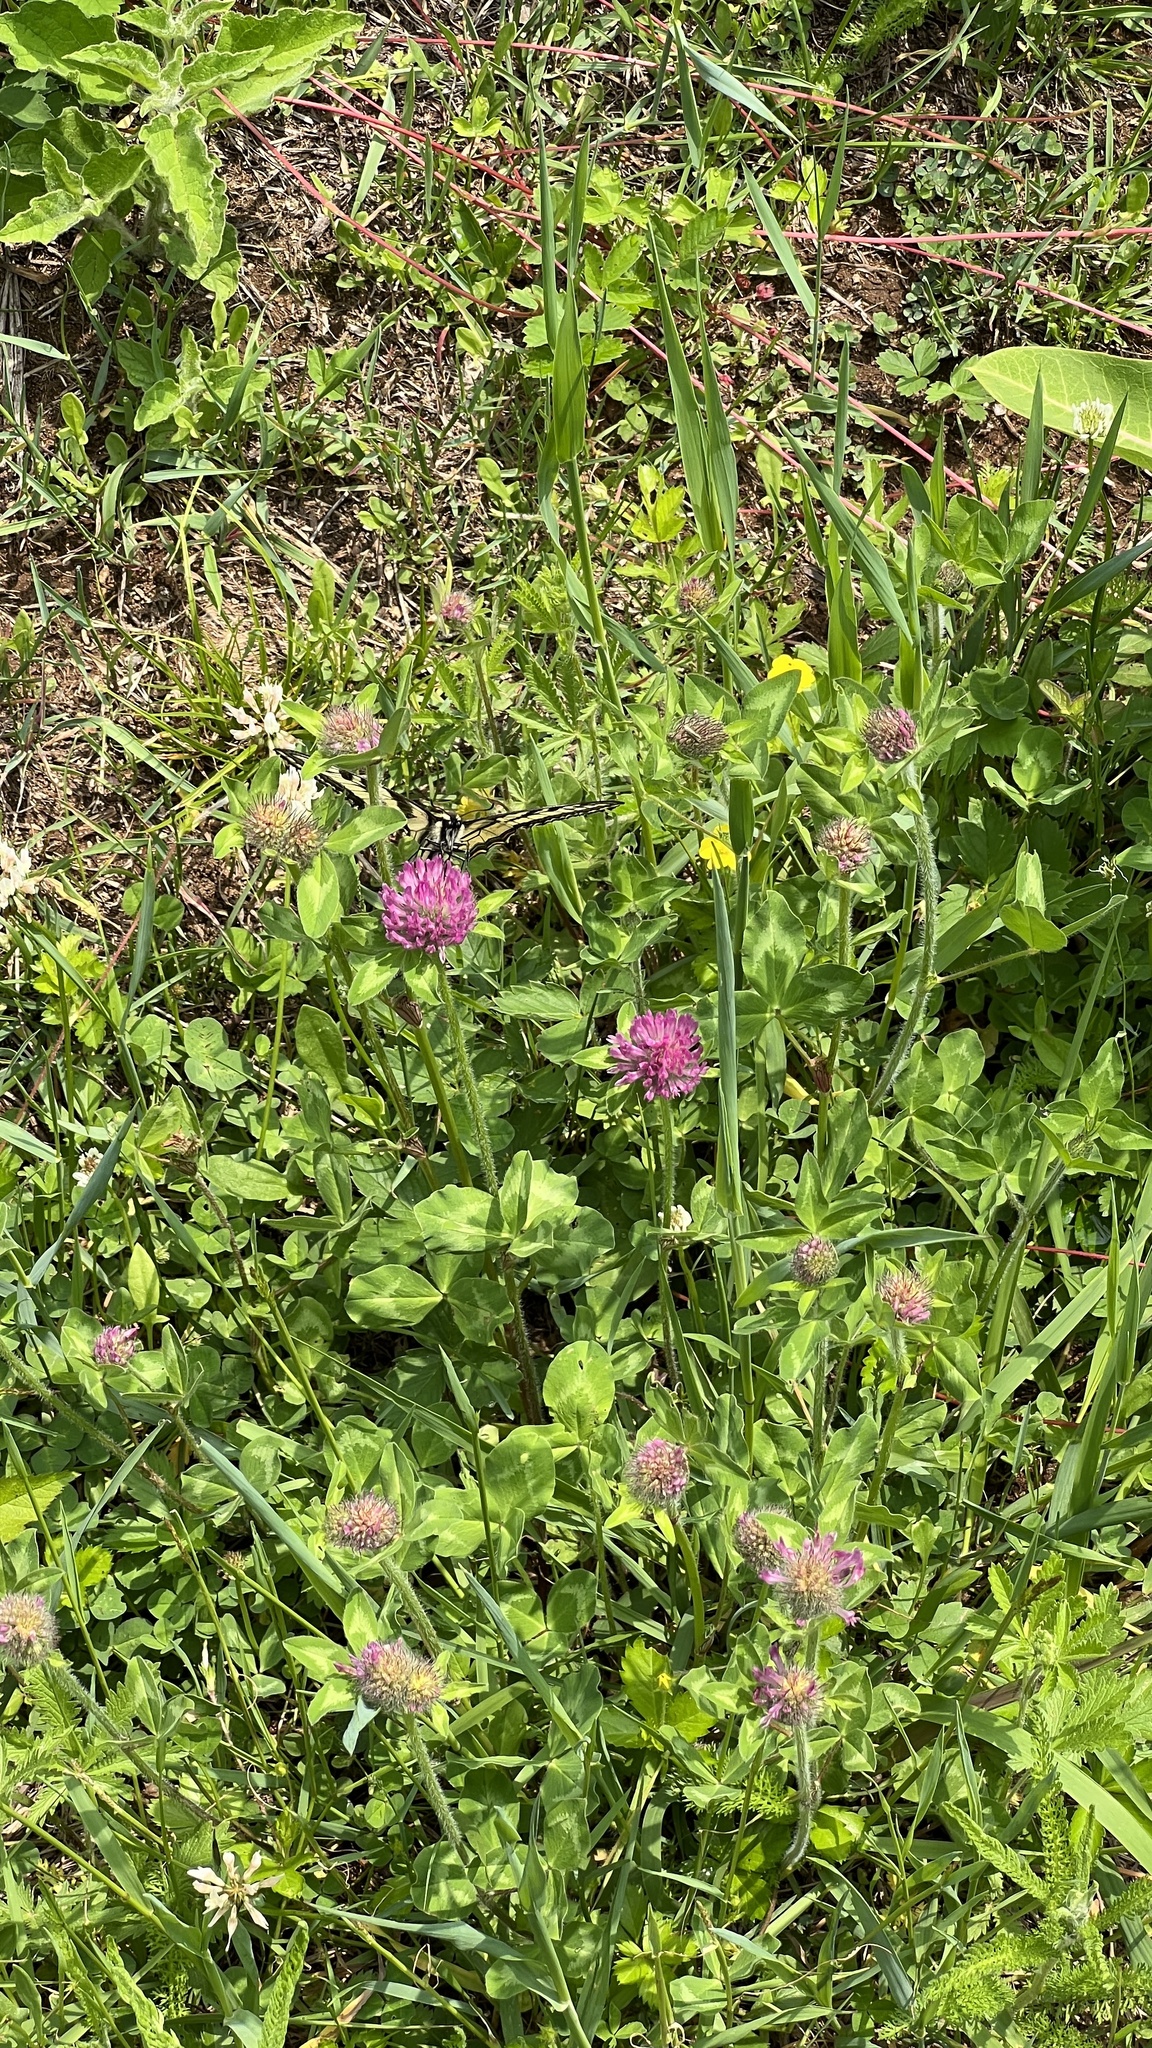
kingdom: Plantae
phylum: Tracheophyta
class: Magnoliopsida
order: Fabales
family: Fabaceae
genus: Trifolium
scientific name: Trifolium pratense
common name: Red clover
